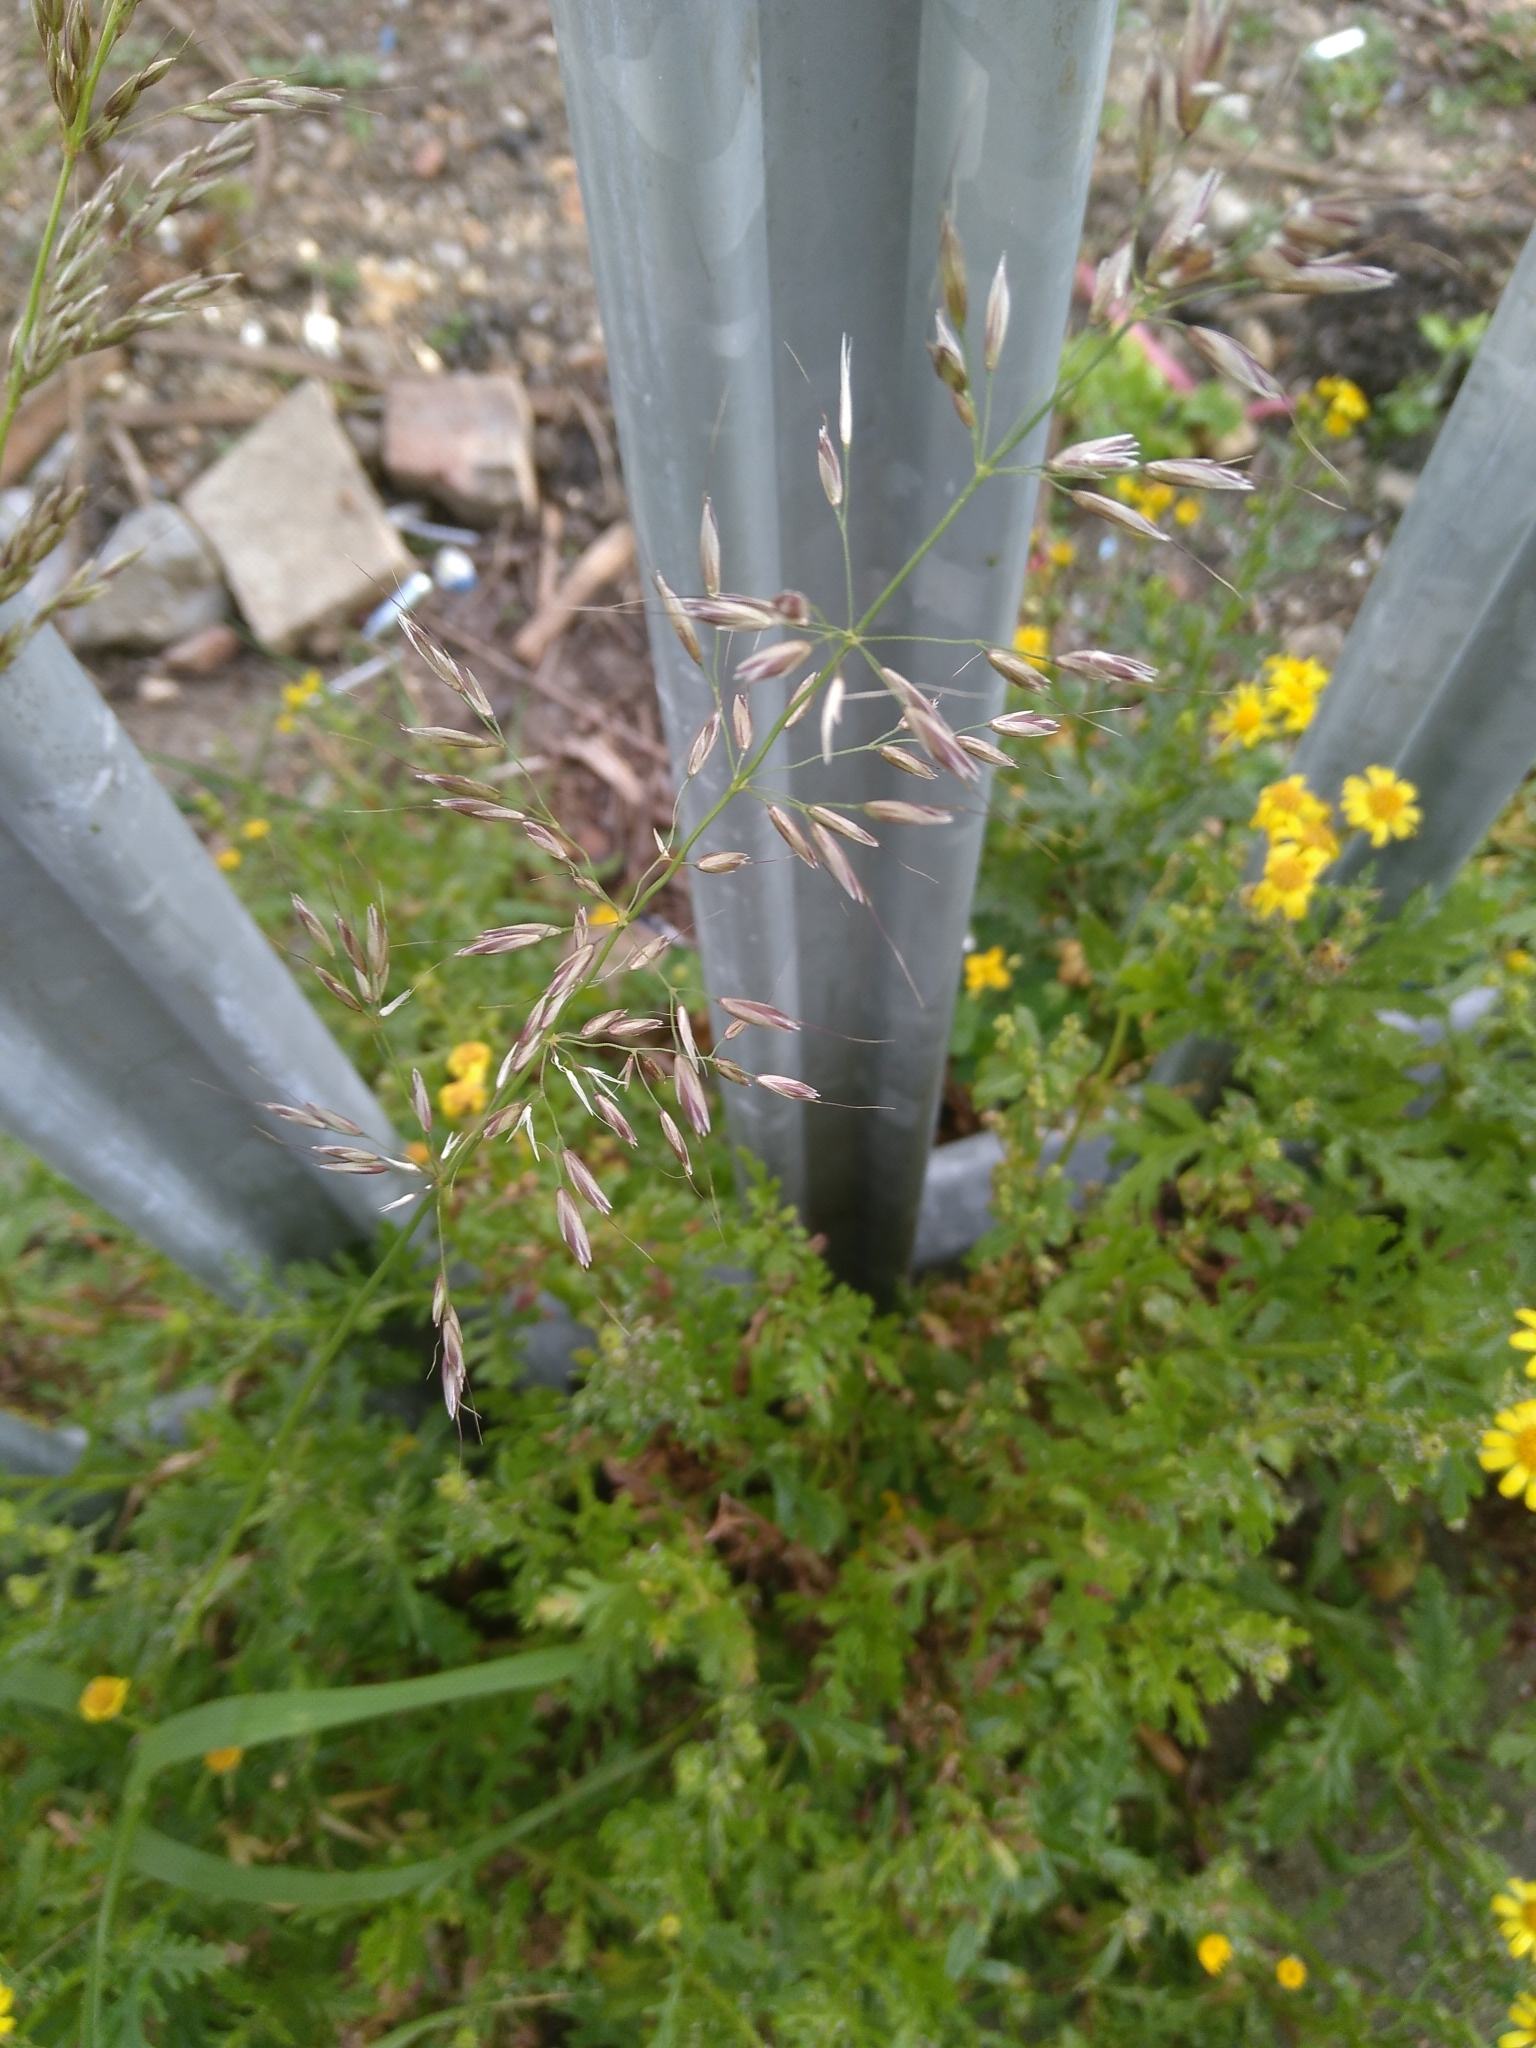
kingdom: Plantae
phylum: Tracheophyta
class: Liliopsida
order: Poales
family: Poaceae
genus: Arrhenatherum
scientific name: Arrhenatherum elatius
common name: Tall oatgrass
